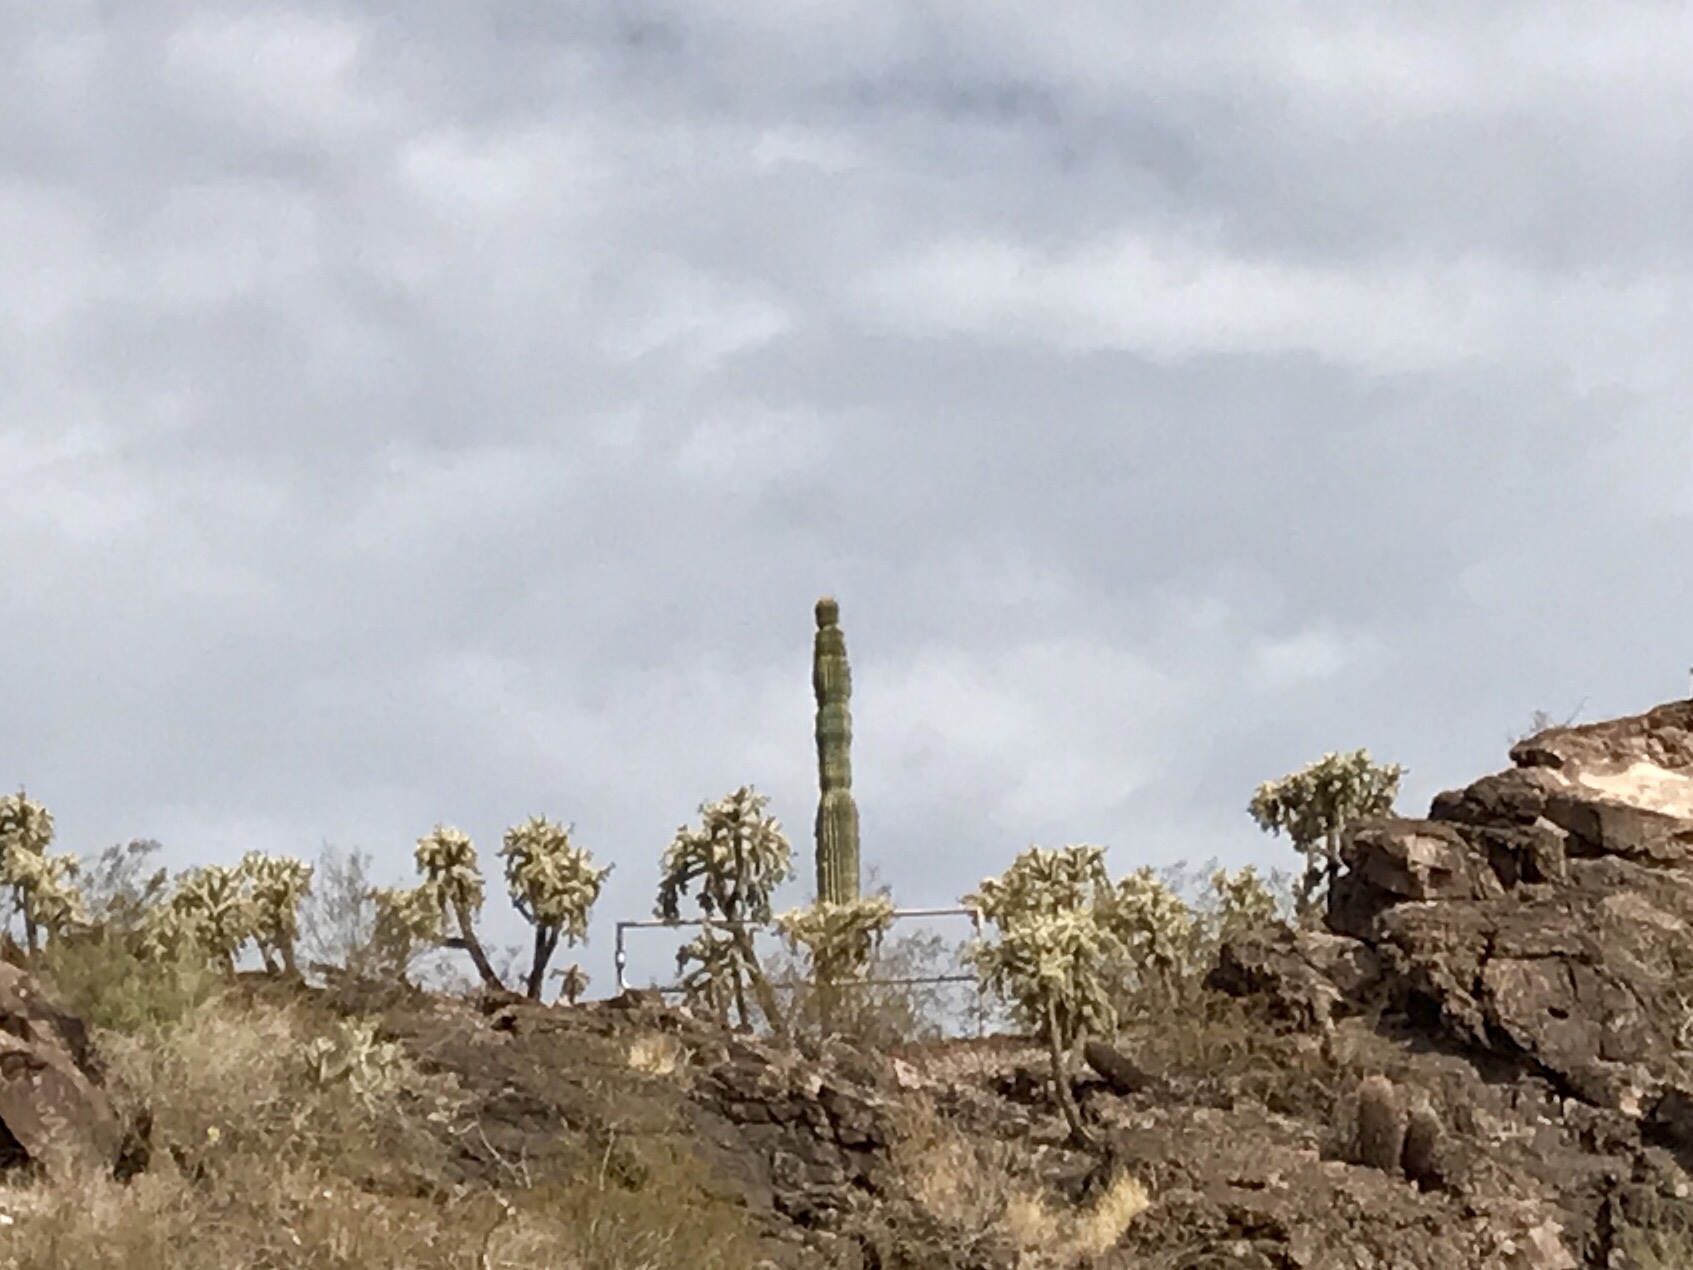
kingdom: Plantae
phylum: Tracheophyta
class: Magnoliopsida
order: Caryophyllales
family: Cactaceae
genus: Carnegiea
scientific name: Carnegiea gigantea
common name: Saguaro
